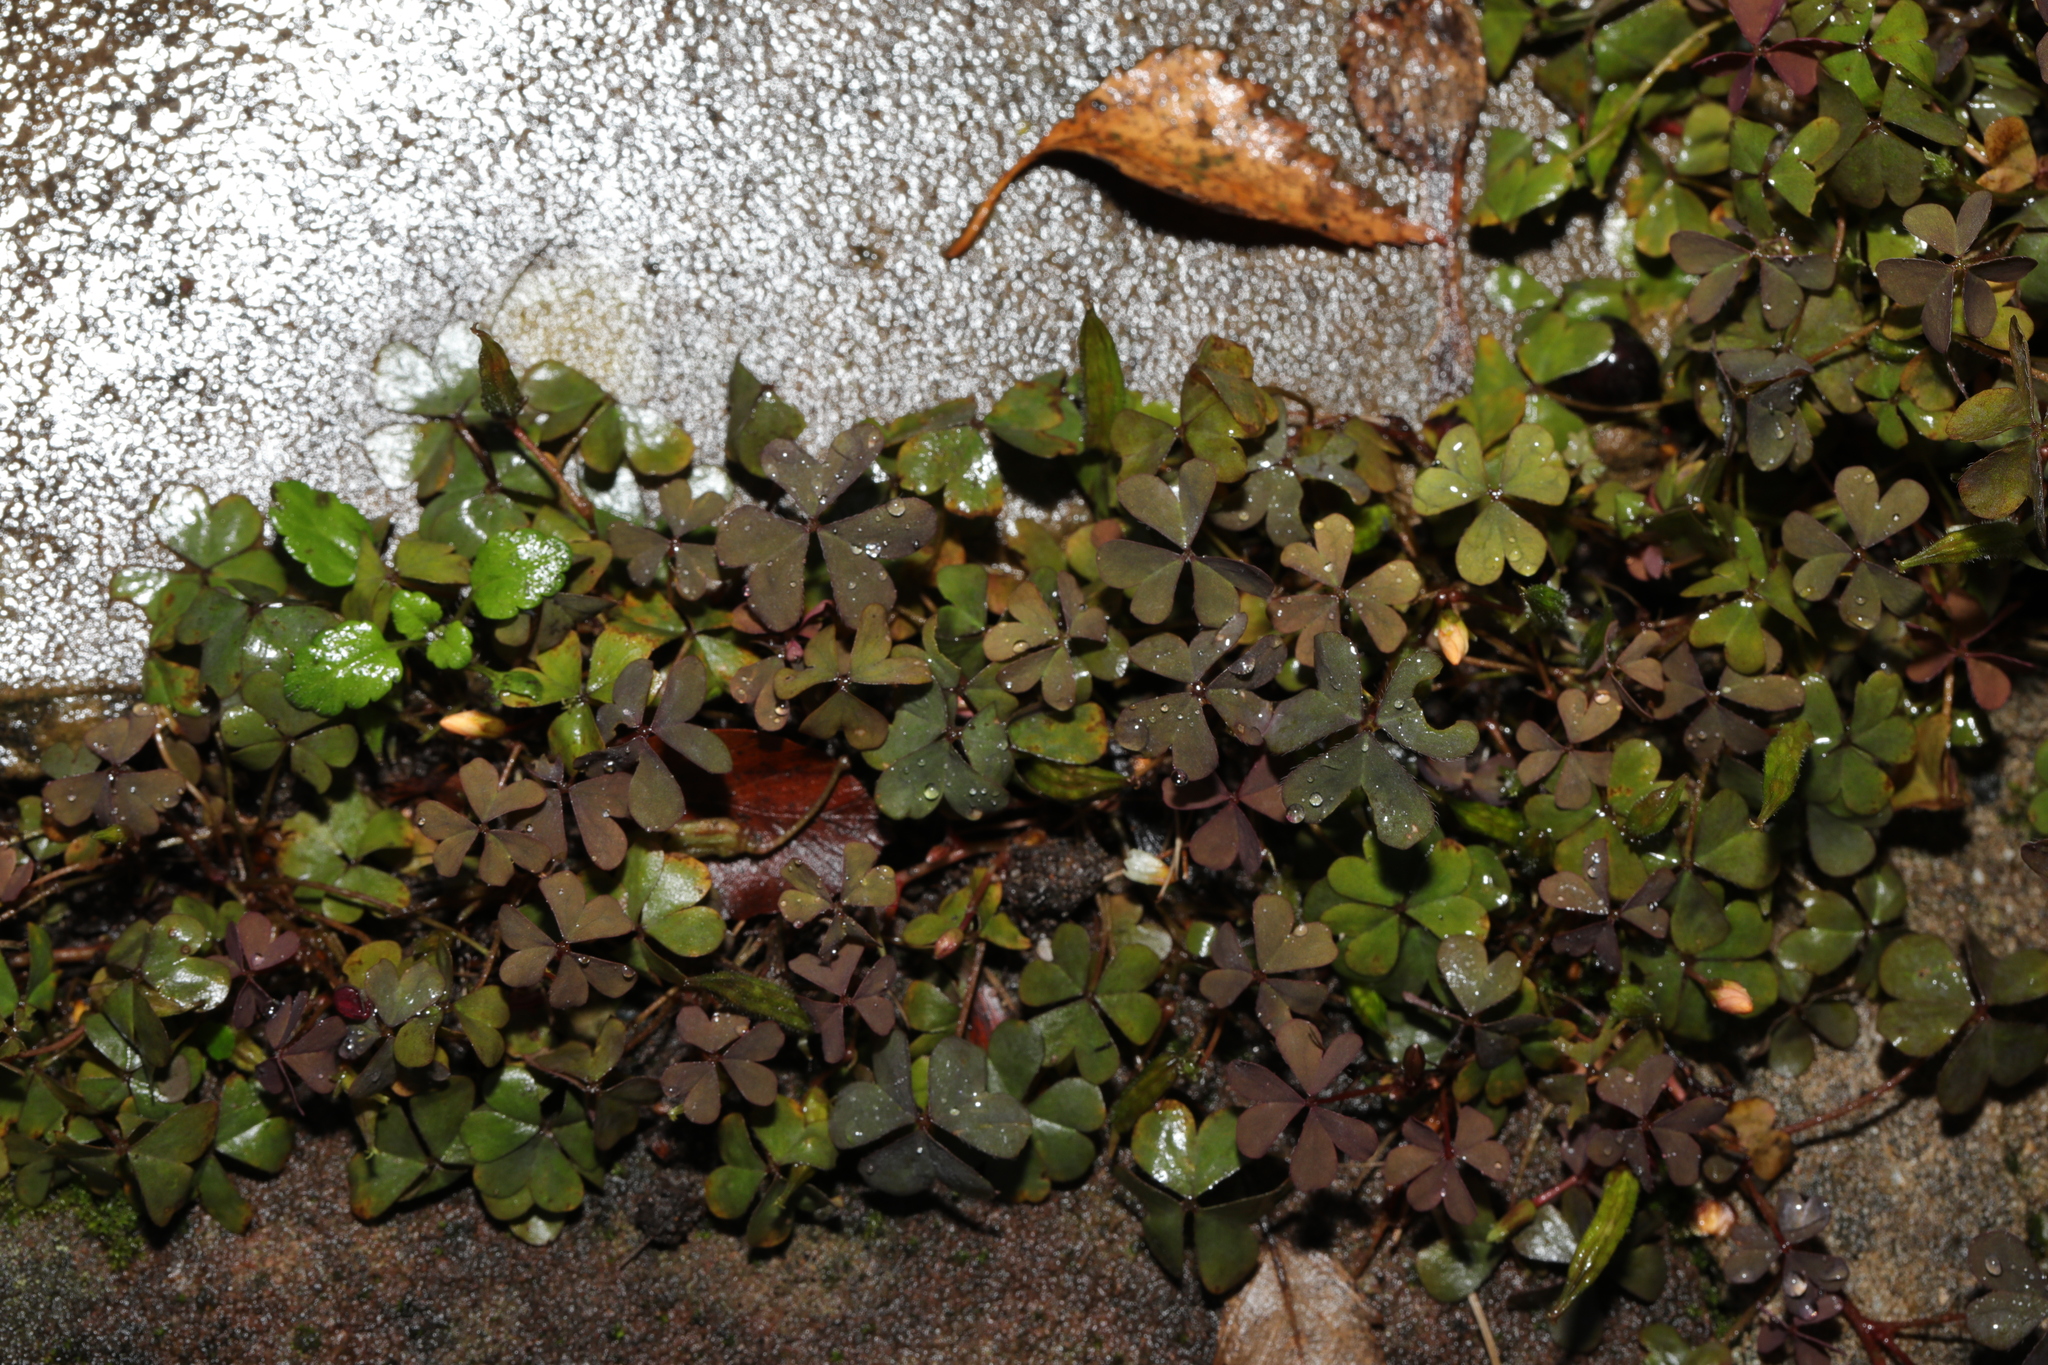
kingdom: Plantae
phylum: Tracheophyta
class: Magnoliopsida
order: Oxalidales
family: Oxalidaceae
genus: Oxalis
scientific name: Oxalis corniculata
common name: Procumbent yellow-sorrel
